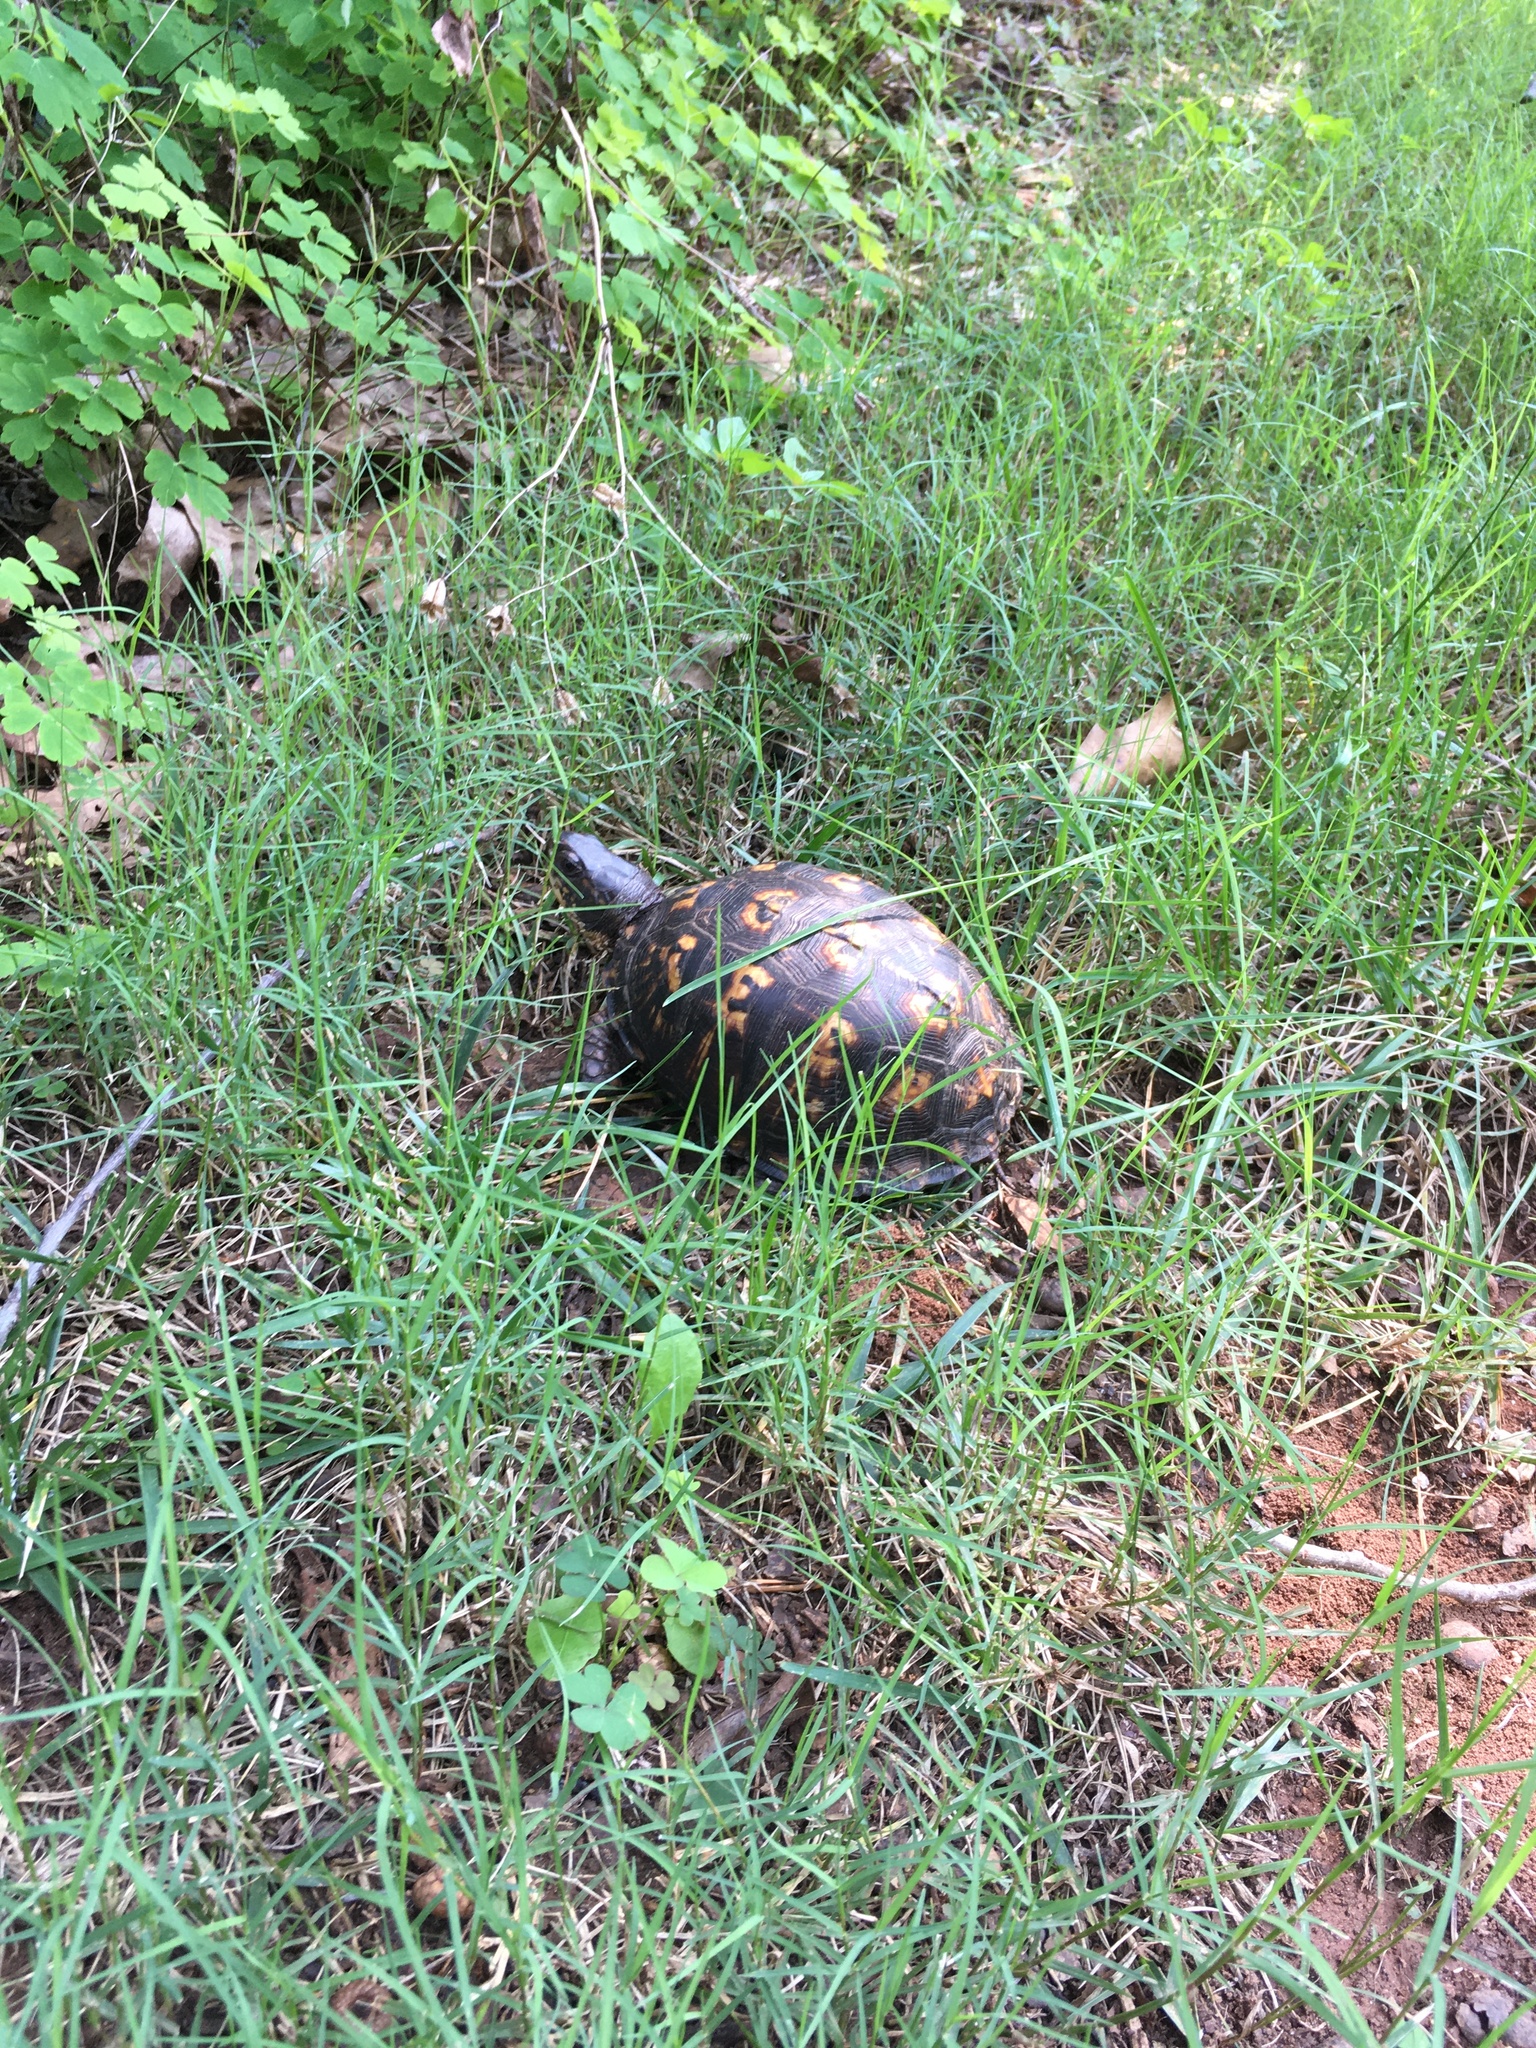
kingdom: Animalia
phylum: Chordata
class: Testudines
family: Emydidae
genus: Terrapene
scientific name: Terrapene carolina
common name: Common box turtle
